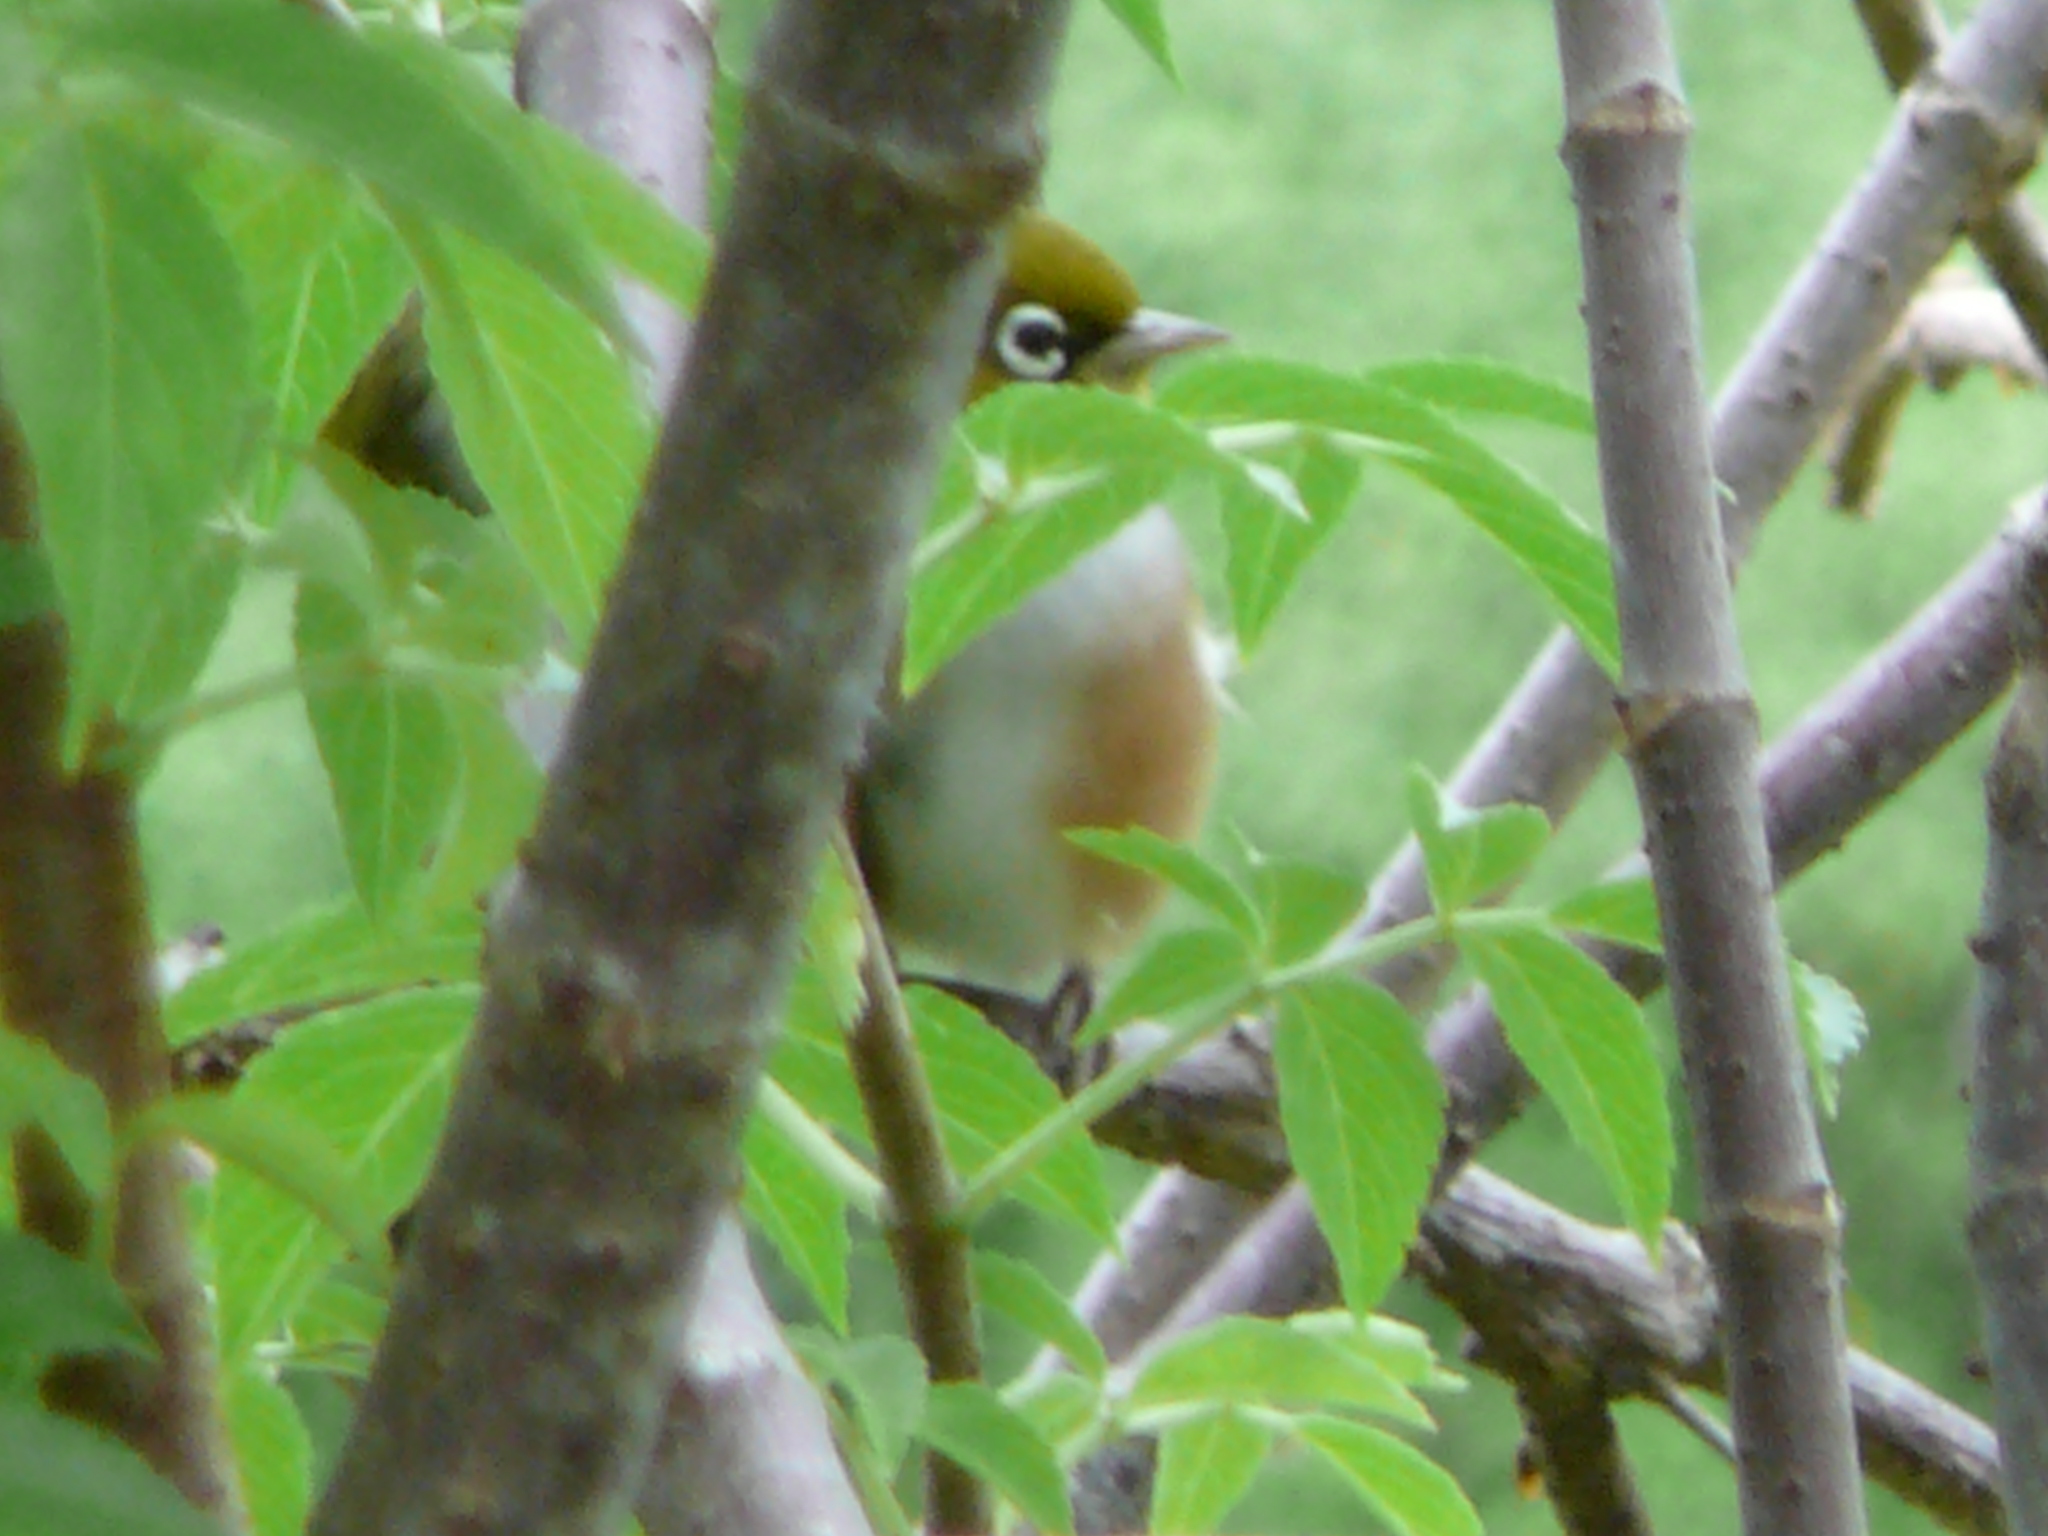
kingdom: Animalia
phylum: Chordata
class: Aves
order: Passeriformes
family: Zosteropidae
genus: Zosterops
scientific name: Zosterops lateralis
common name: Silvereye
